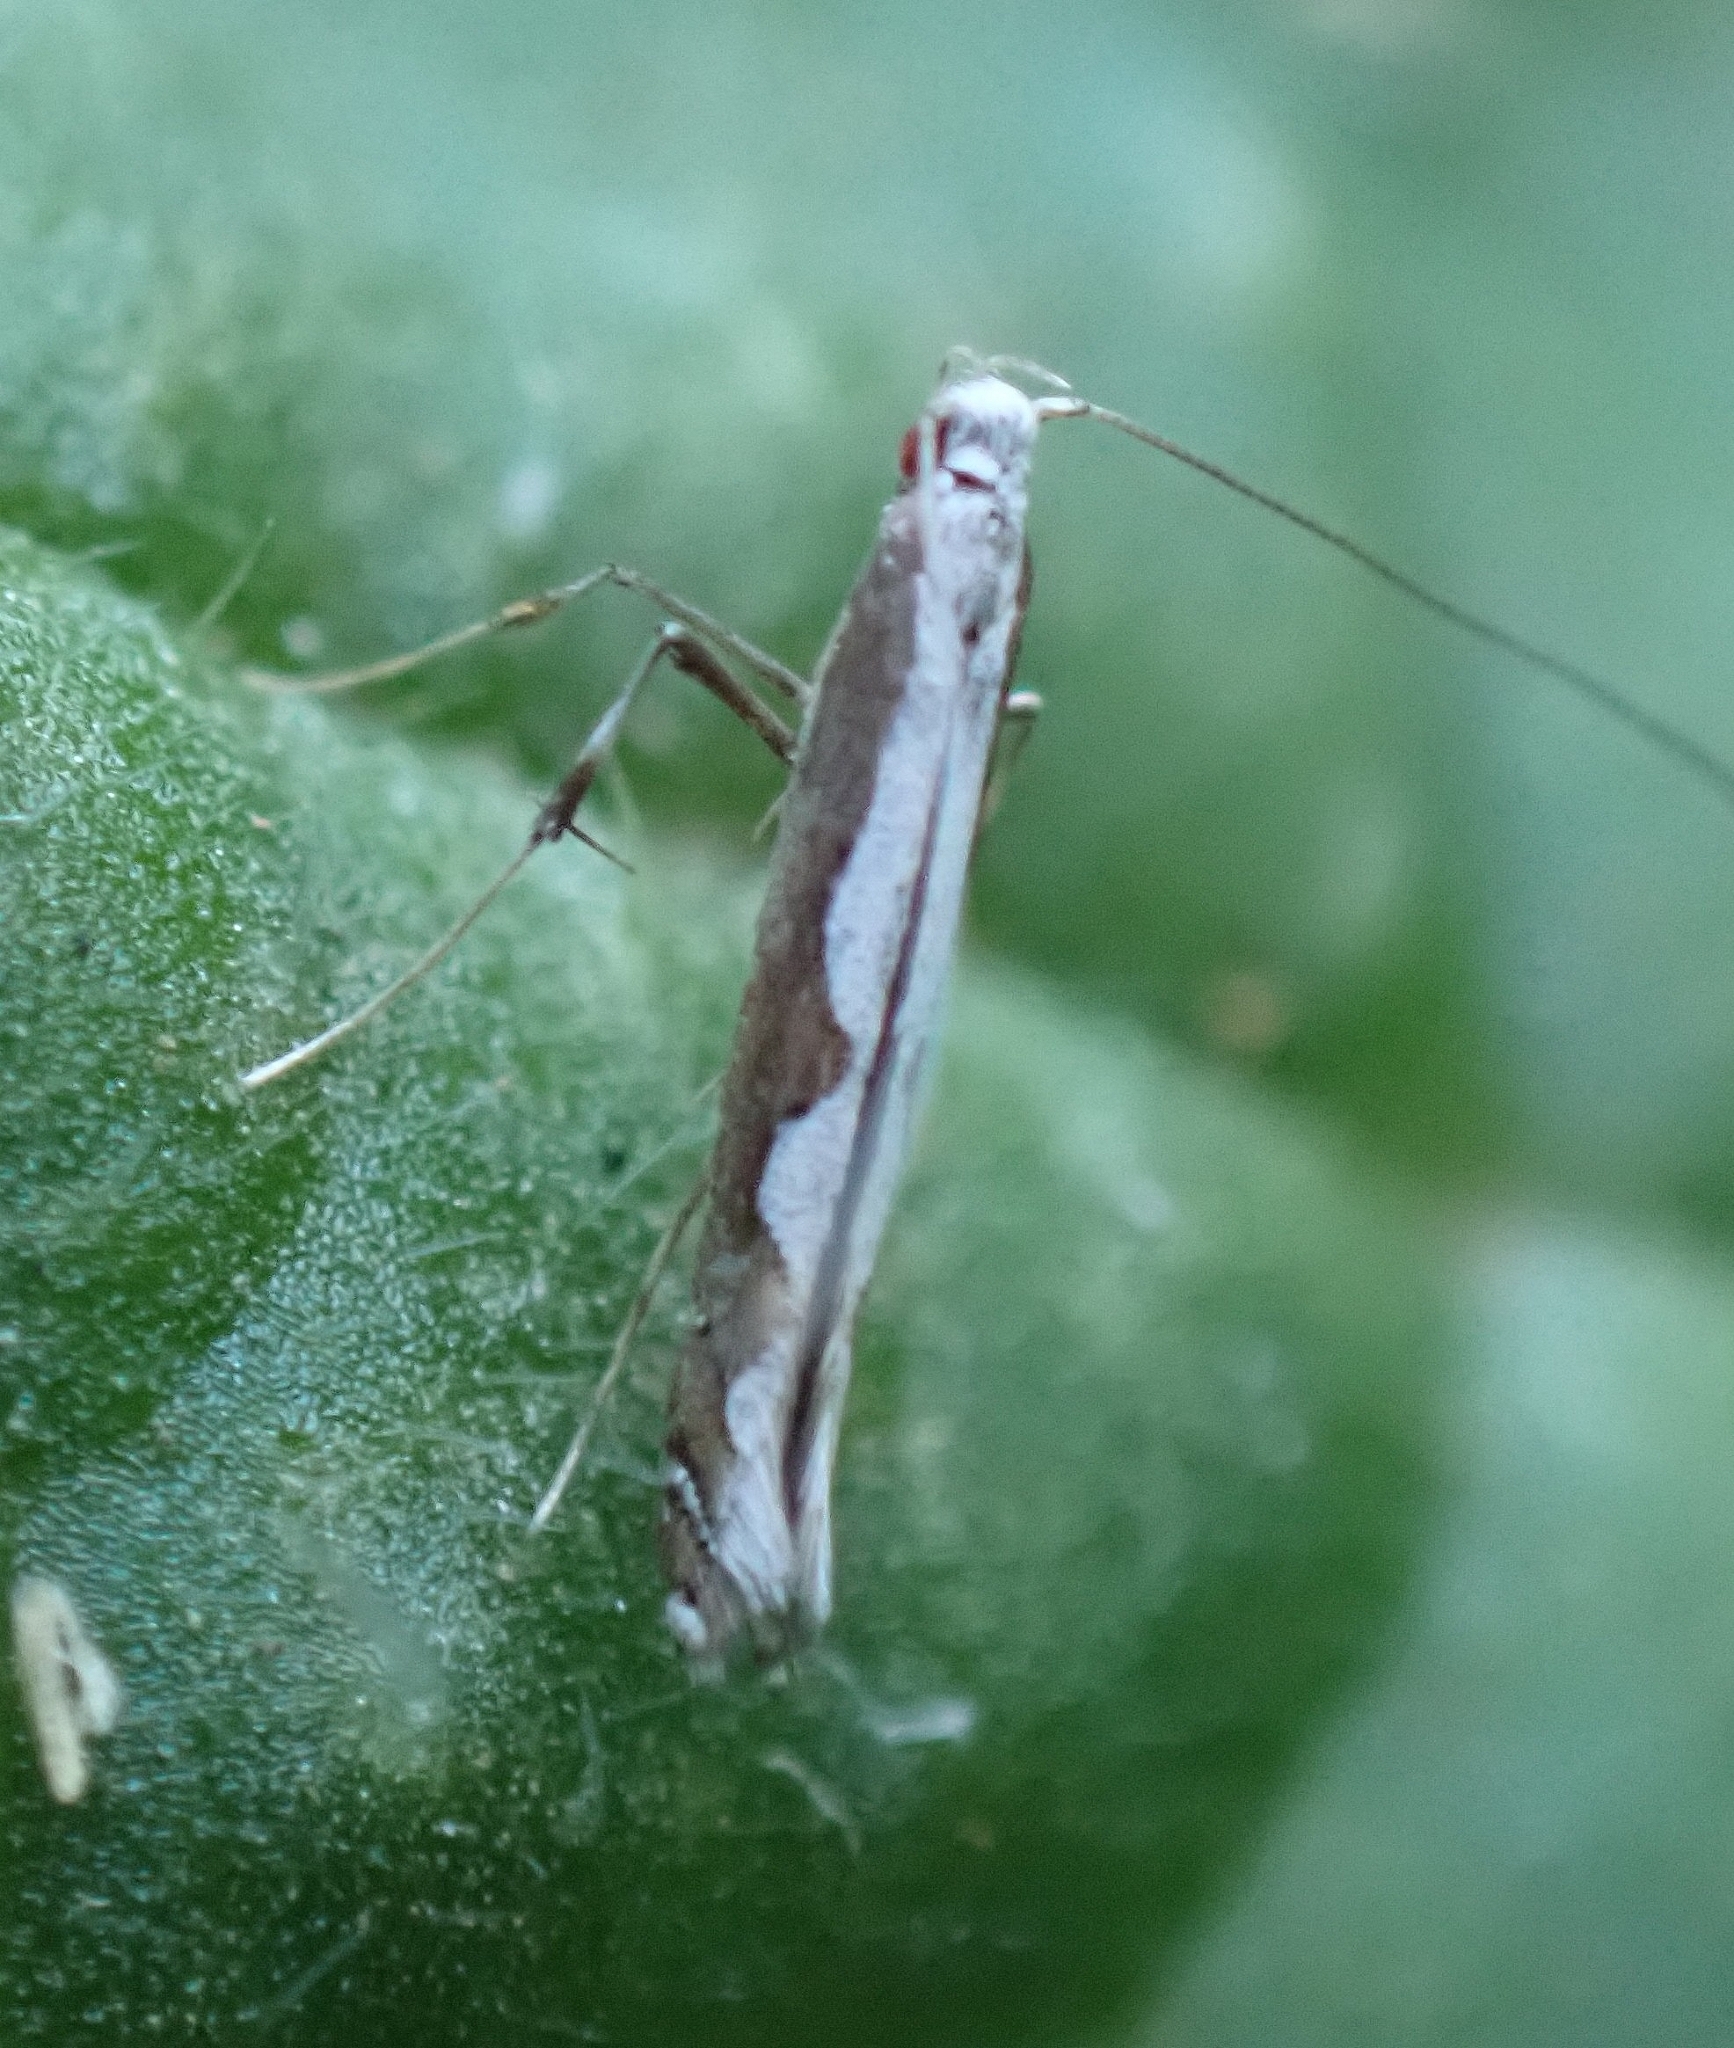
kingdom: Animalia
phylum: Arthropoda
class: Insecta
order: Lepidoptera
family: Gracillariidae
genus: Dialectica
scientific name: Dialectica scalariella
